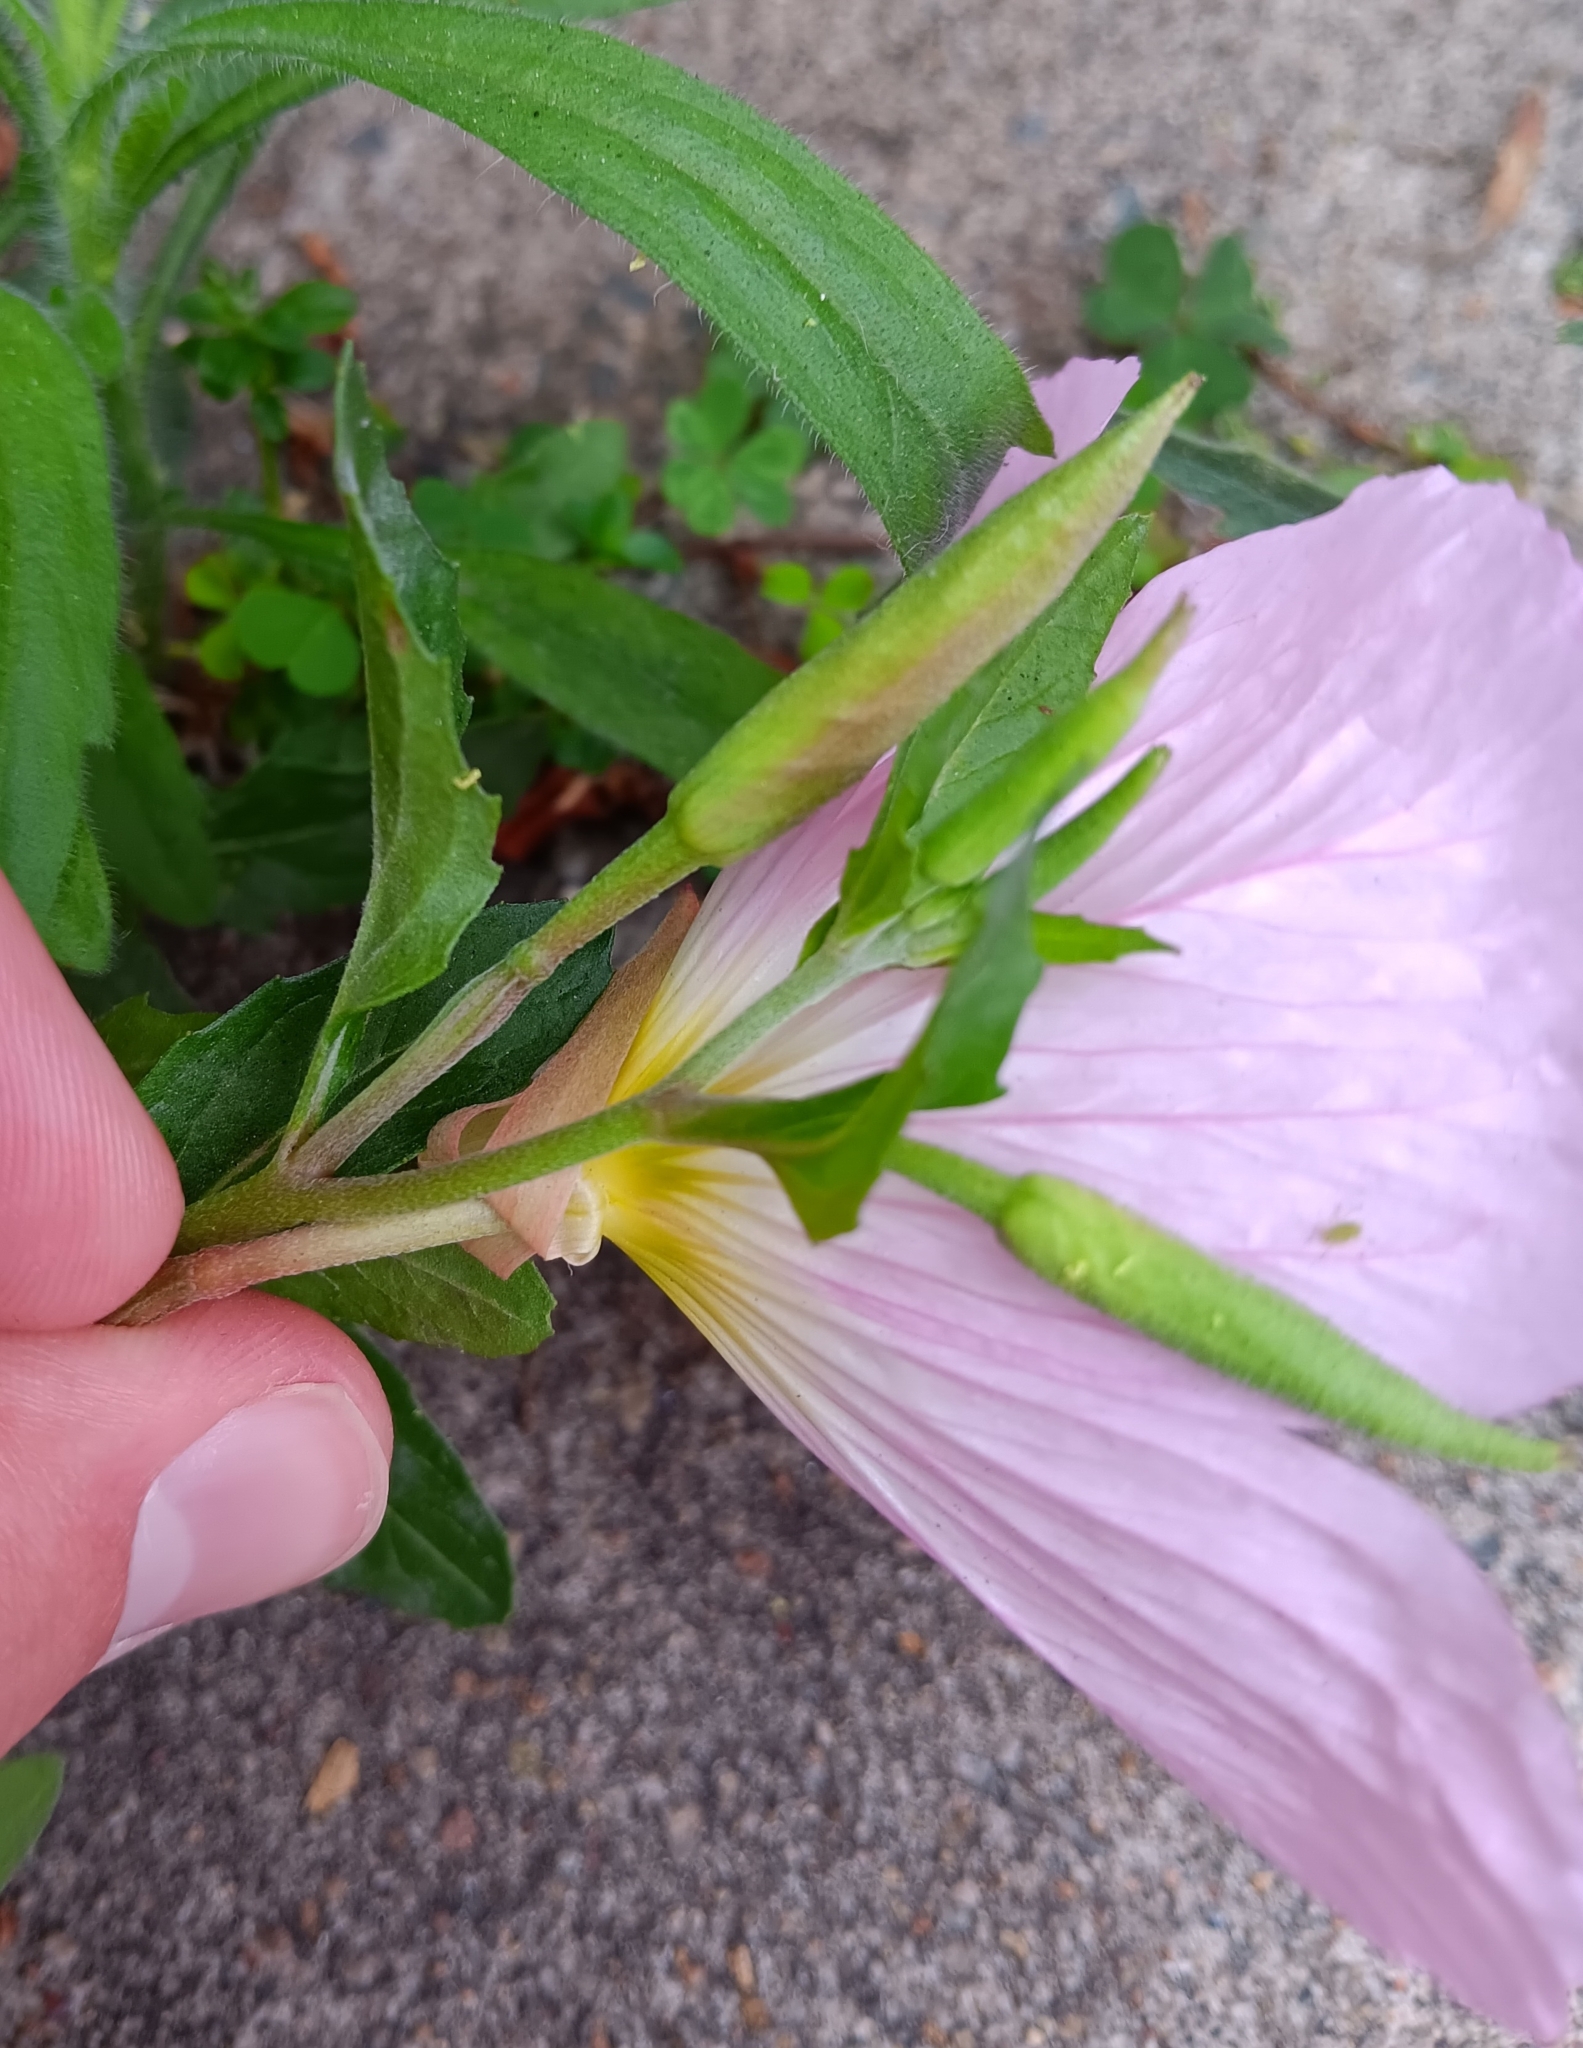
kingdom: Plantae
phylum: Tracheophyta
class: Magnoliopsida
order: Myrtales
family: Onagraceae
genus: Oenothera
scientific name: Oenothera speciosa
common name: White evening-primrose
